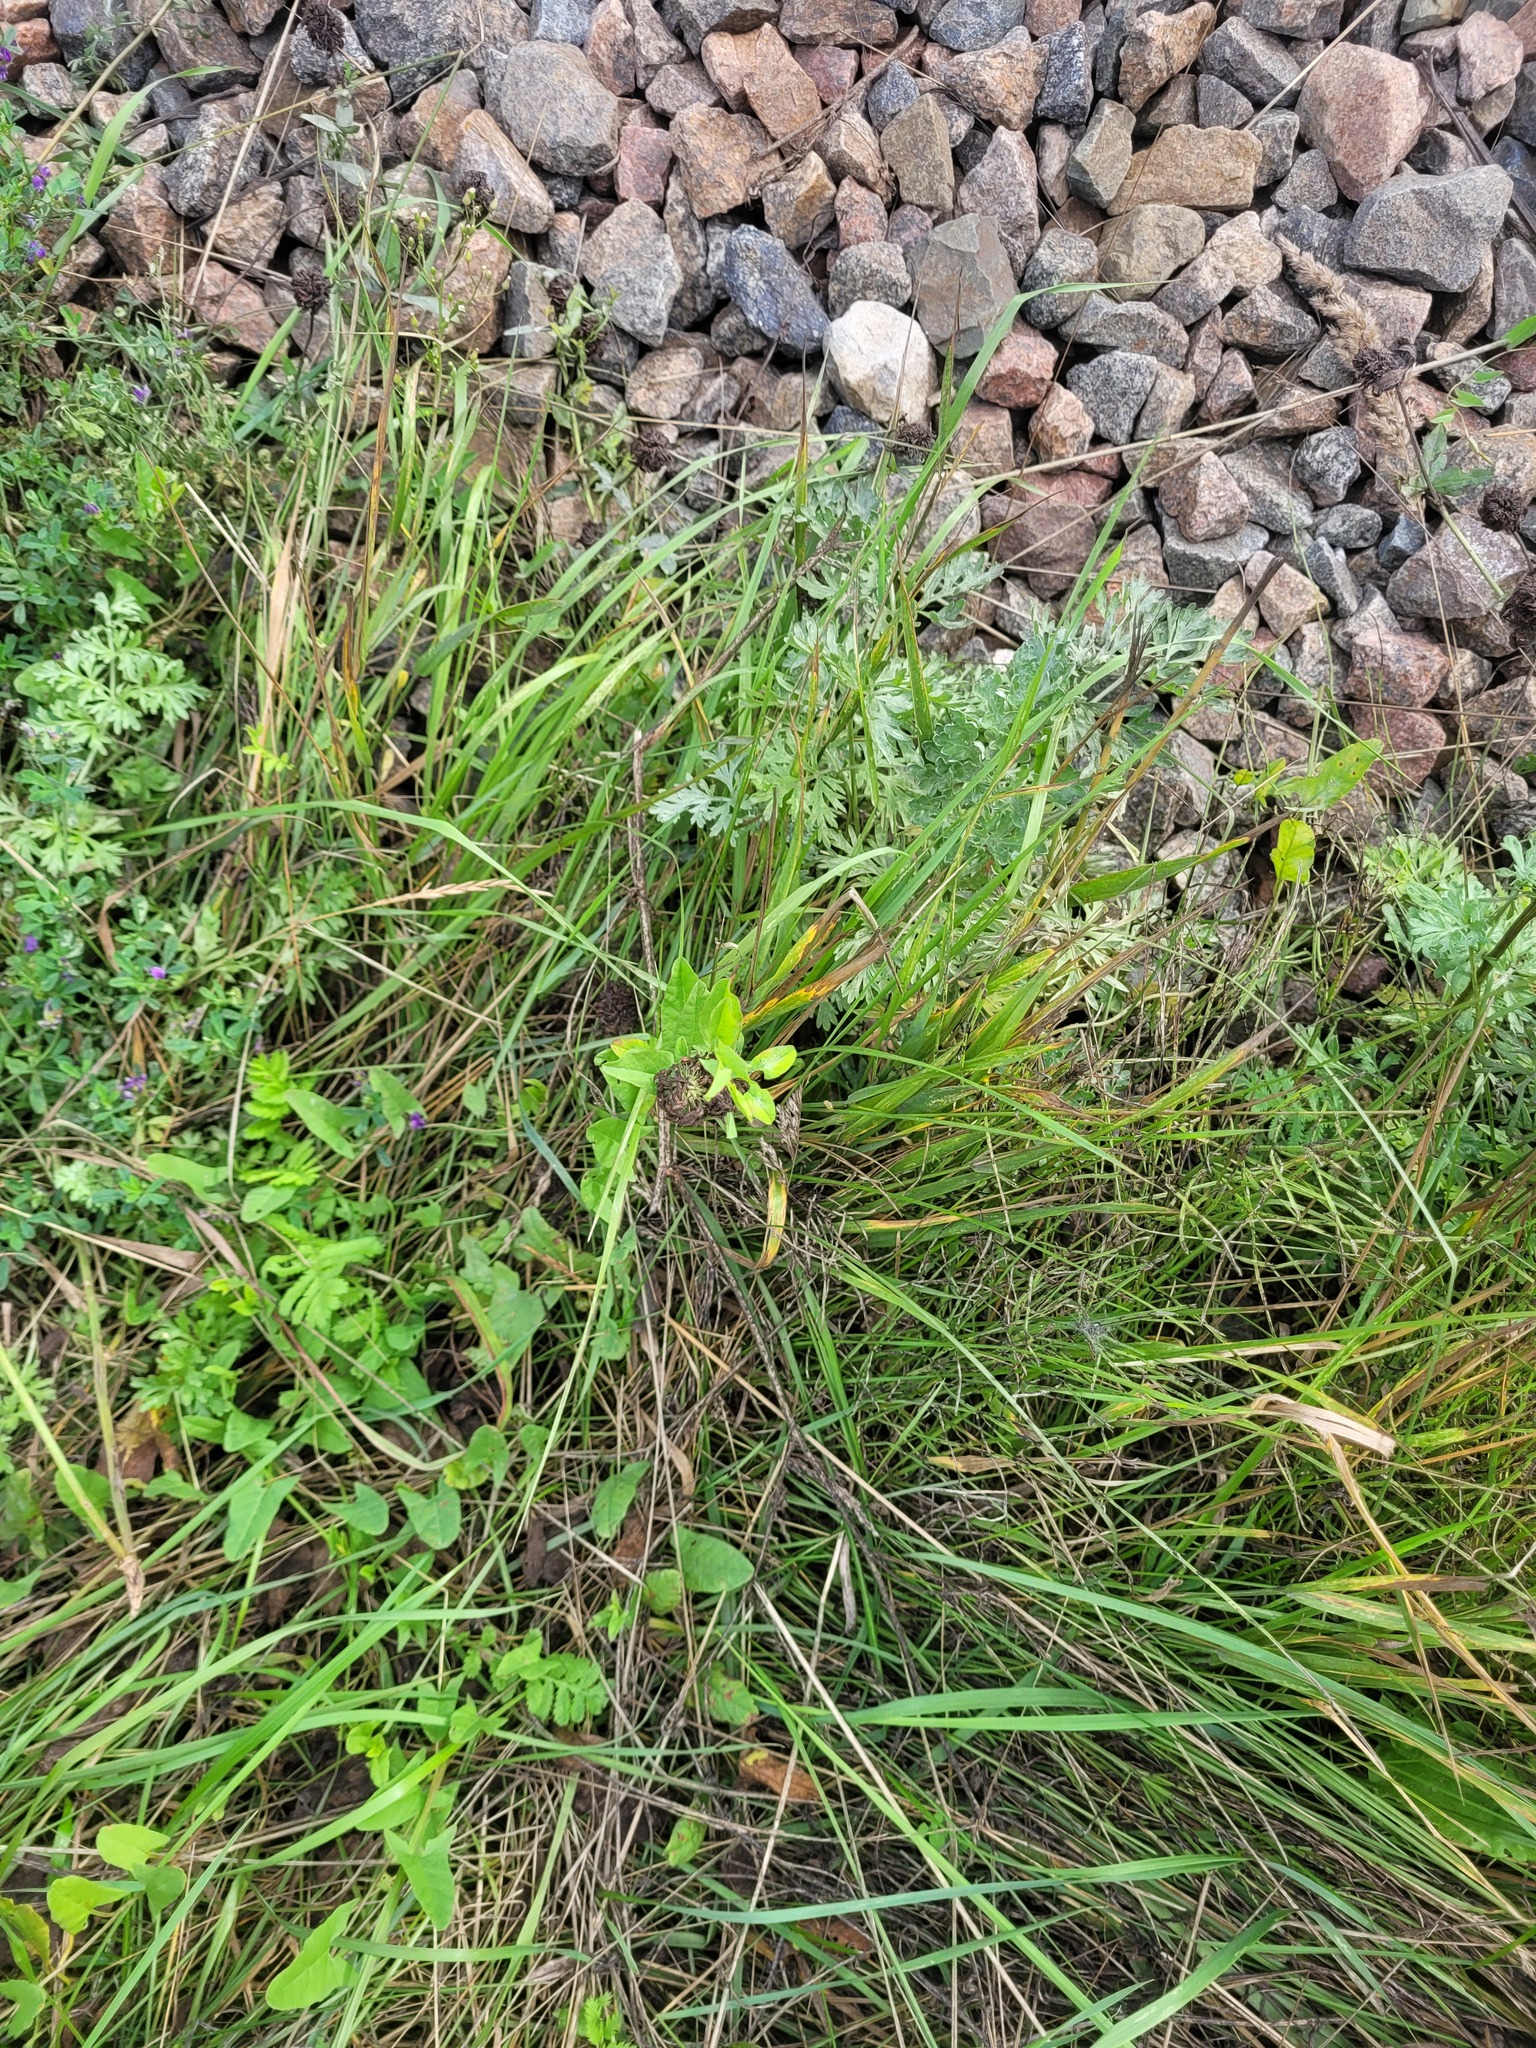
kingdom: Plantae
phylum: Tracheophyta
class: Magnoliopsida
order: Fabales
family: Fabaceae
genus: Trifolium
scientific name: Trifolium pratense
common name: Red clover
